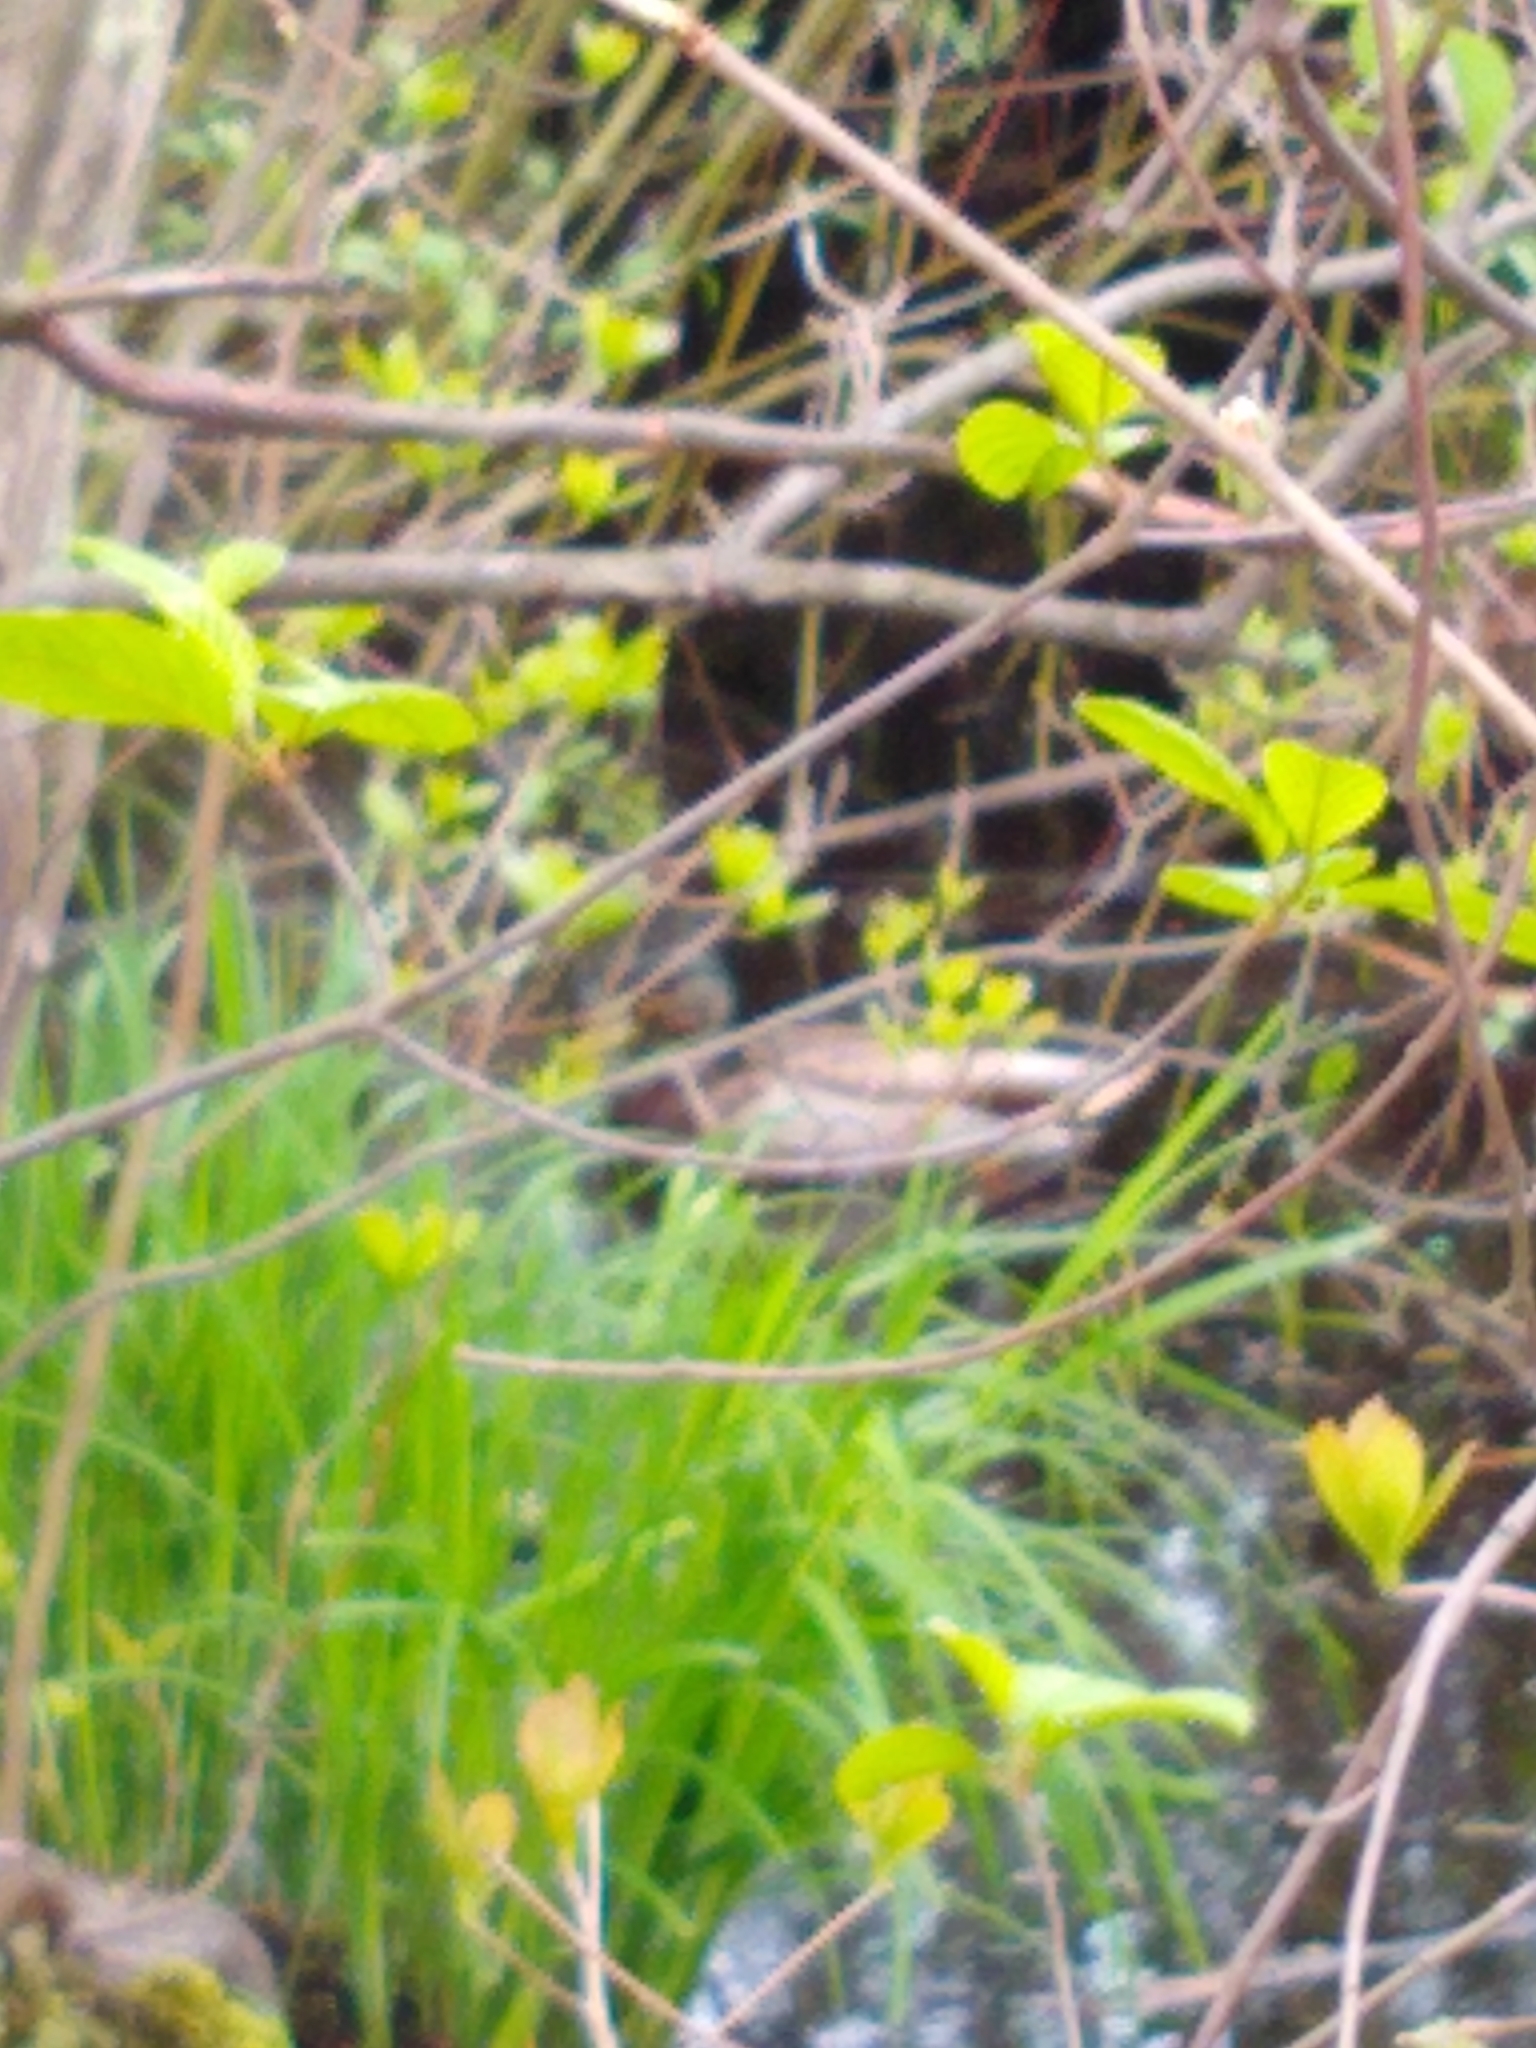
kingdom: Animalia
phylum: Chordata
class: Aves
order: Anseriformes
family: Anatidae
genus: Anas
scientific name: Anas platyrhynchos
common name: Mallard
